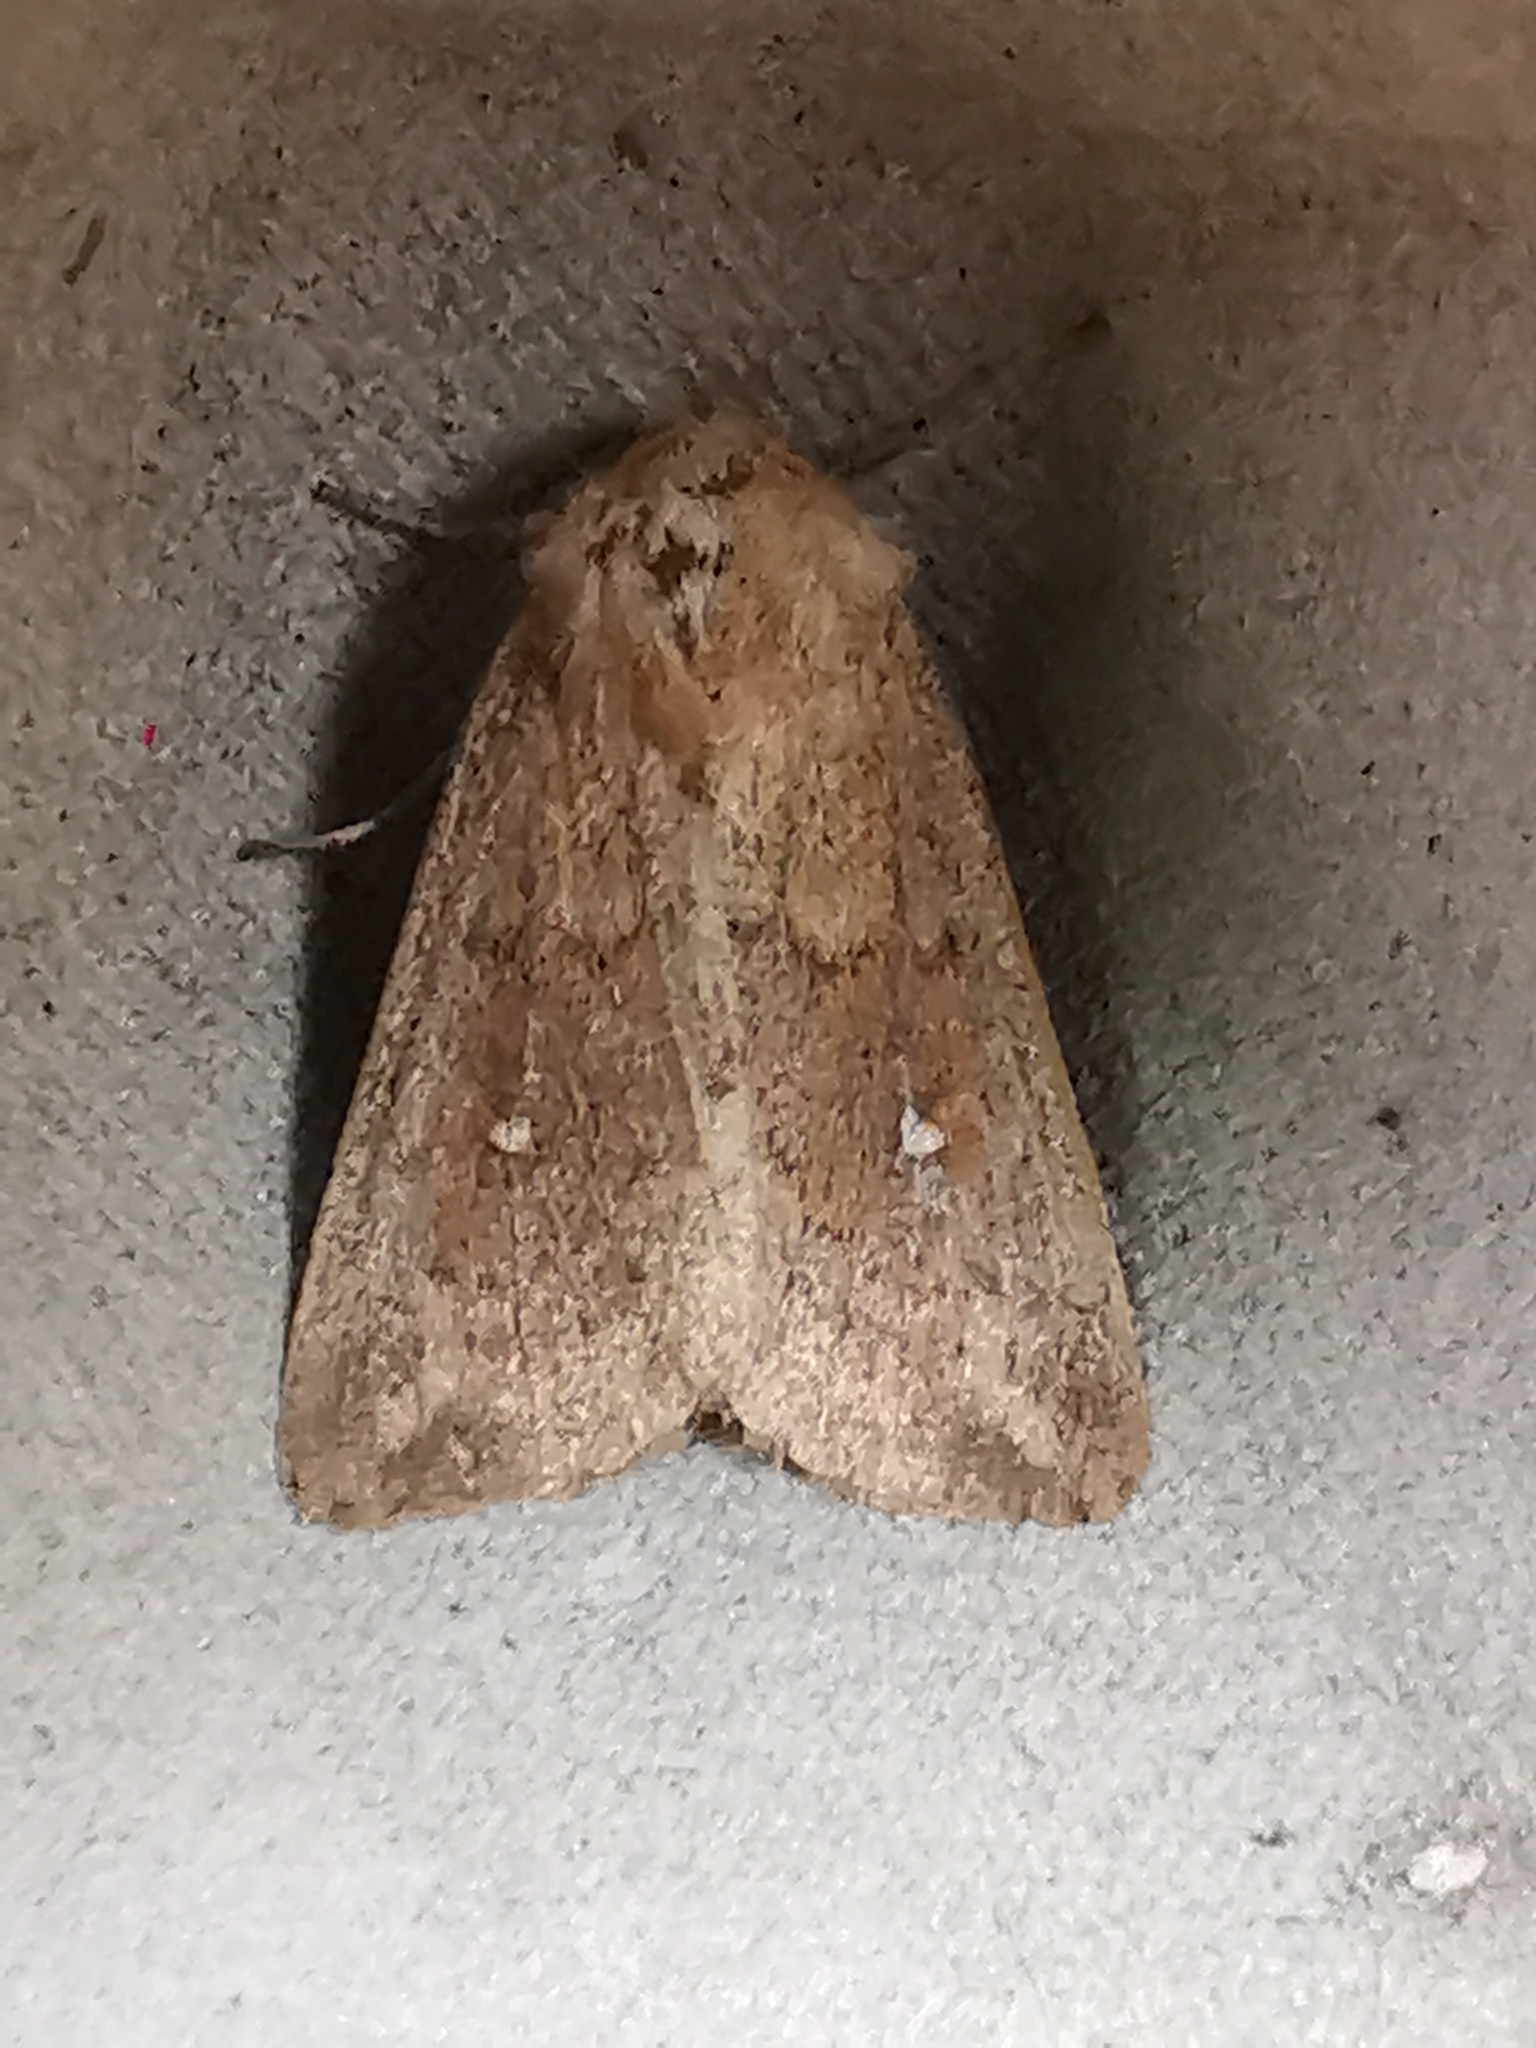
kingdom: Animalia
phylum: Arthropoda
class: Insecta
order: Lepidoptera
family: Noctuidae
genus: Mythimna
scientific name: Mythimna albipuncta
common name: White-point
